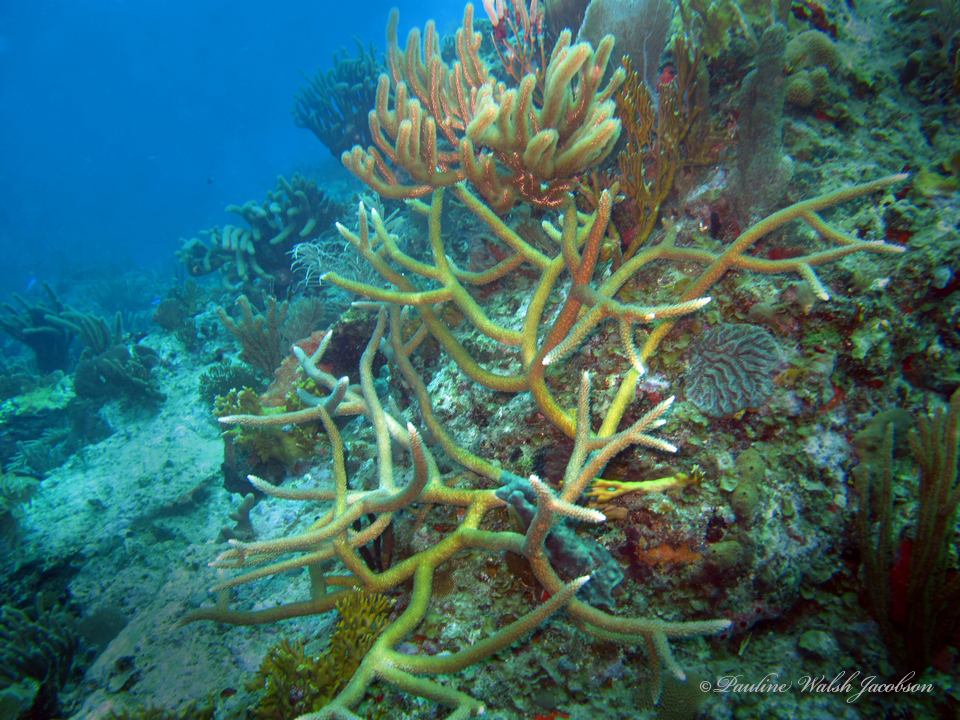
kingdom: Animalia
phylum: Cnidaria
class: Anthozoa
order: Scleractinia
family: Acroporidae
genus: Acropora
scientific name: Acropora cervicornis
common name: Staghorn coral
